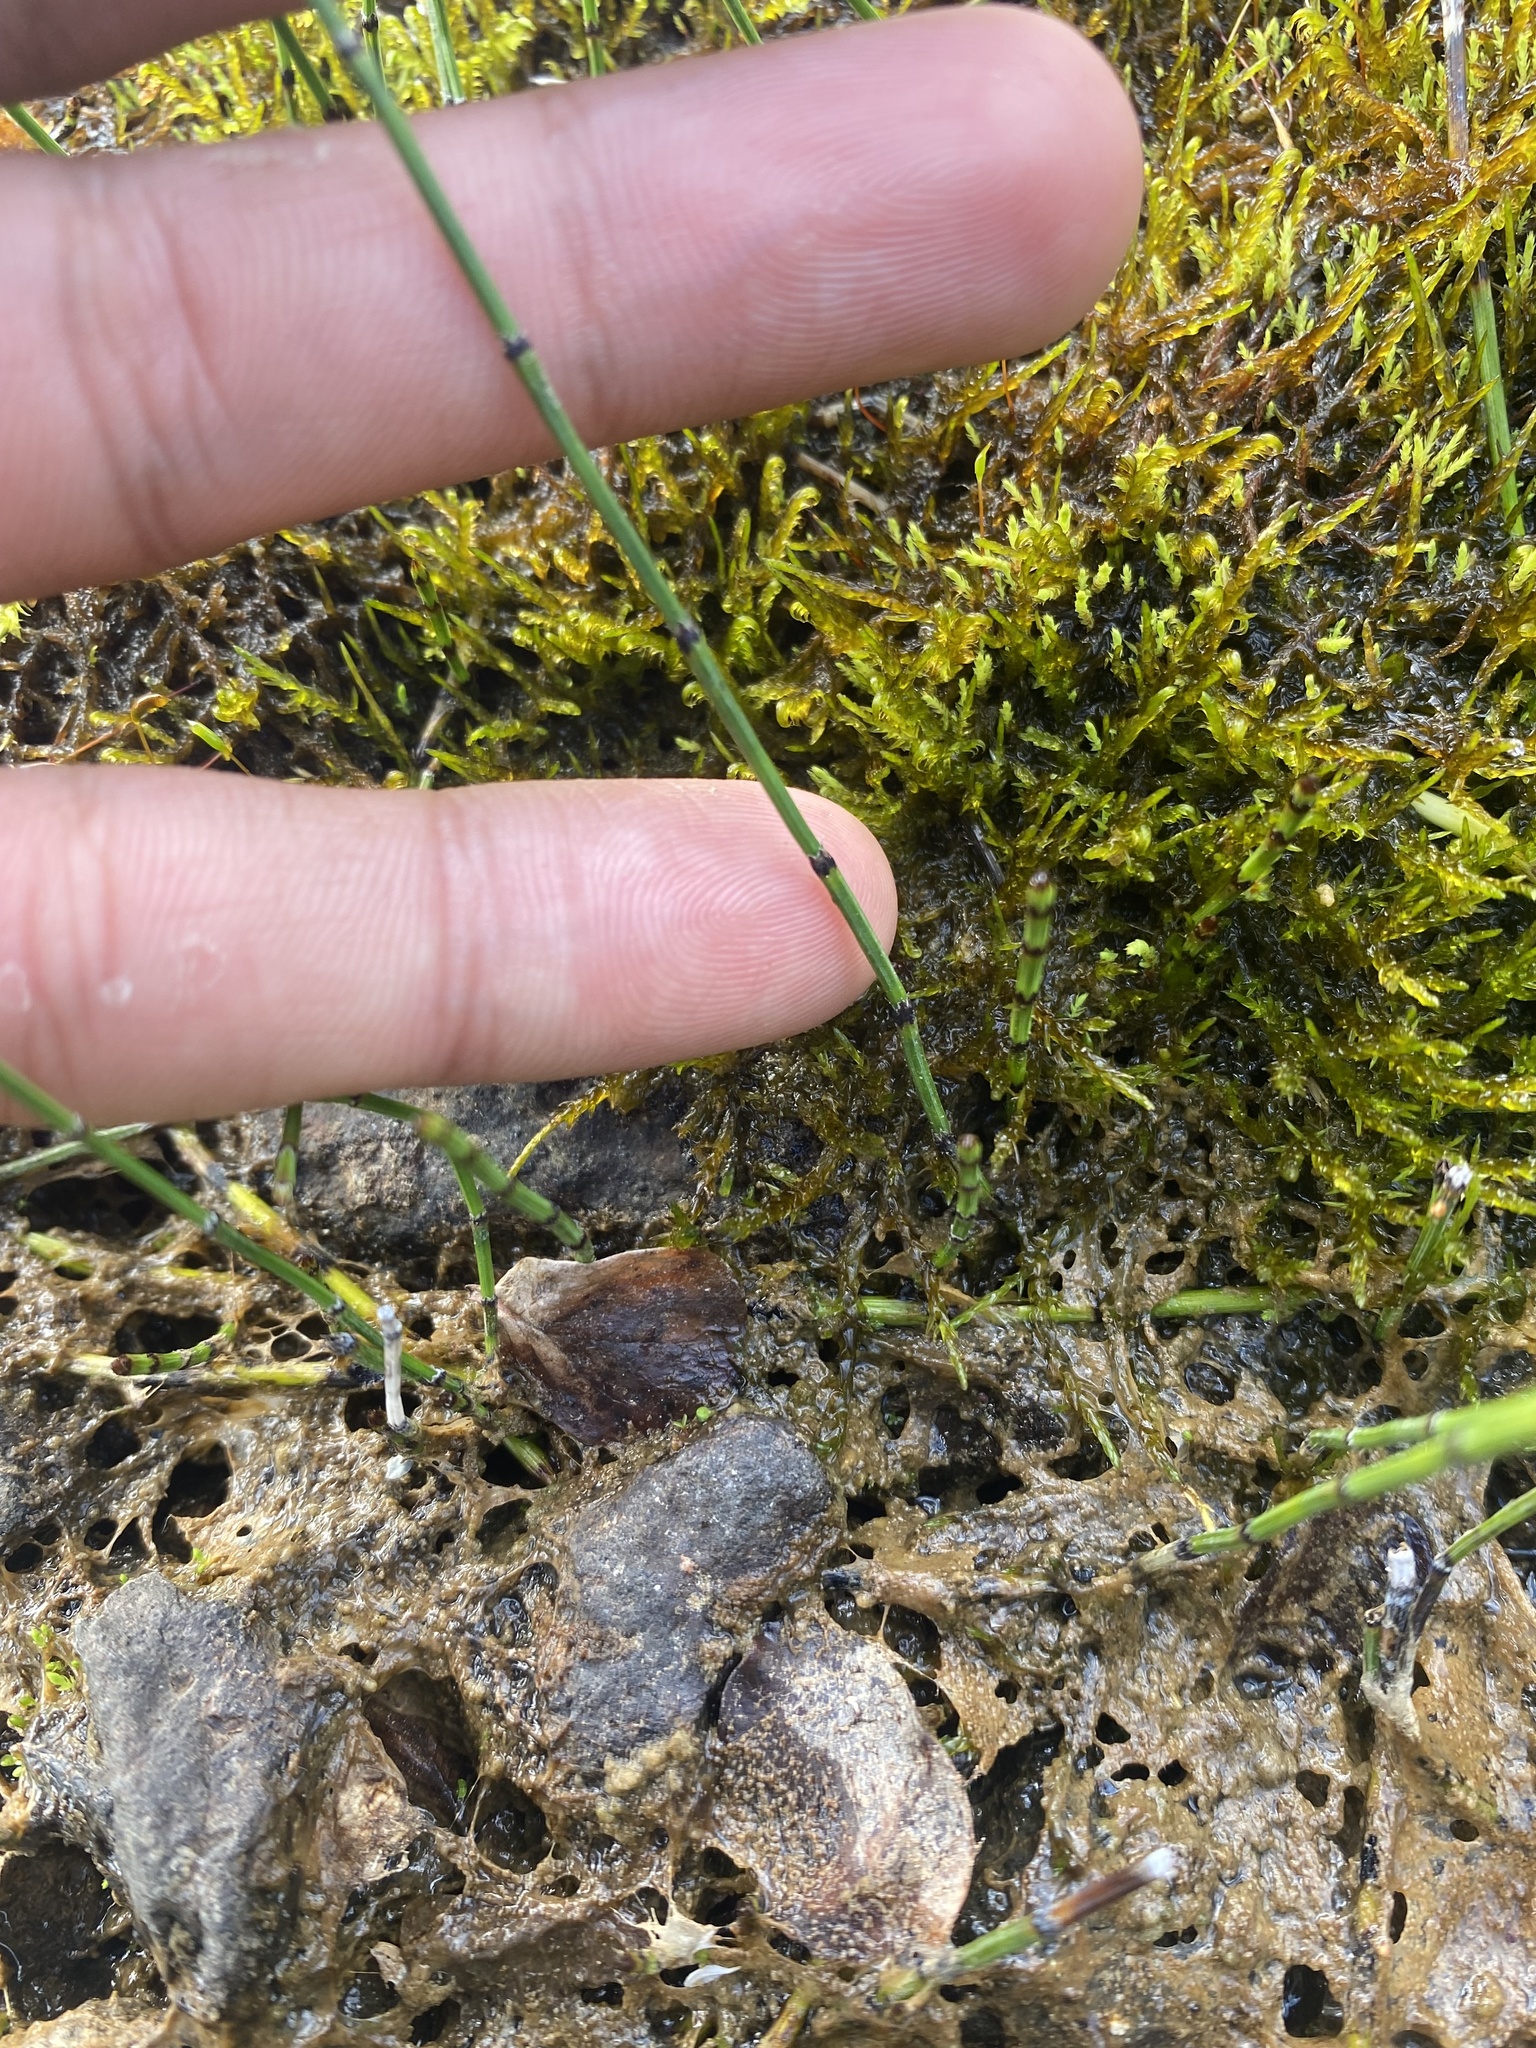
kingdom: Plantae
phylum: Tracheophyta
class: Polypodiopsida
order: Equisetales
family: Equisetaceae
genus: Equisetum
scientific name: Equisetum variegatum
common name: Variegated horsetail
